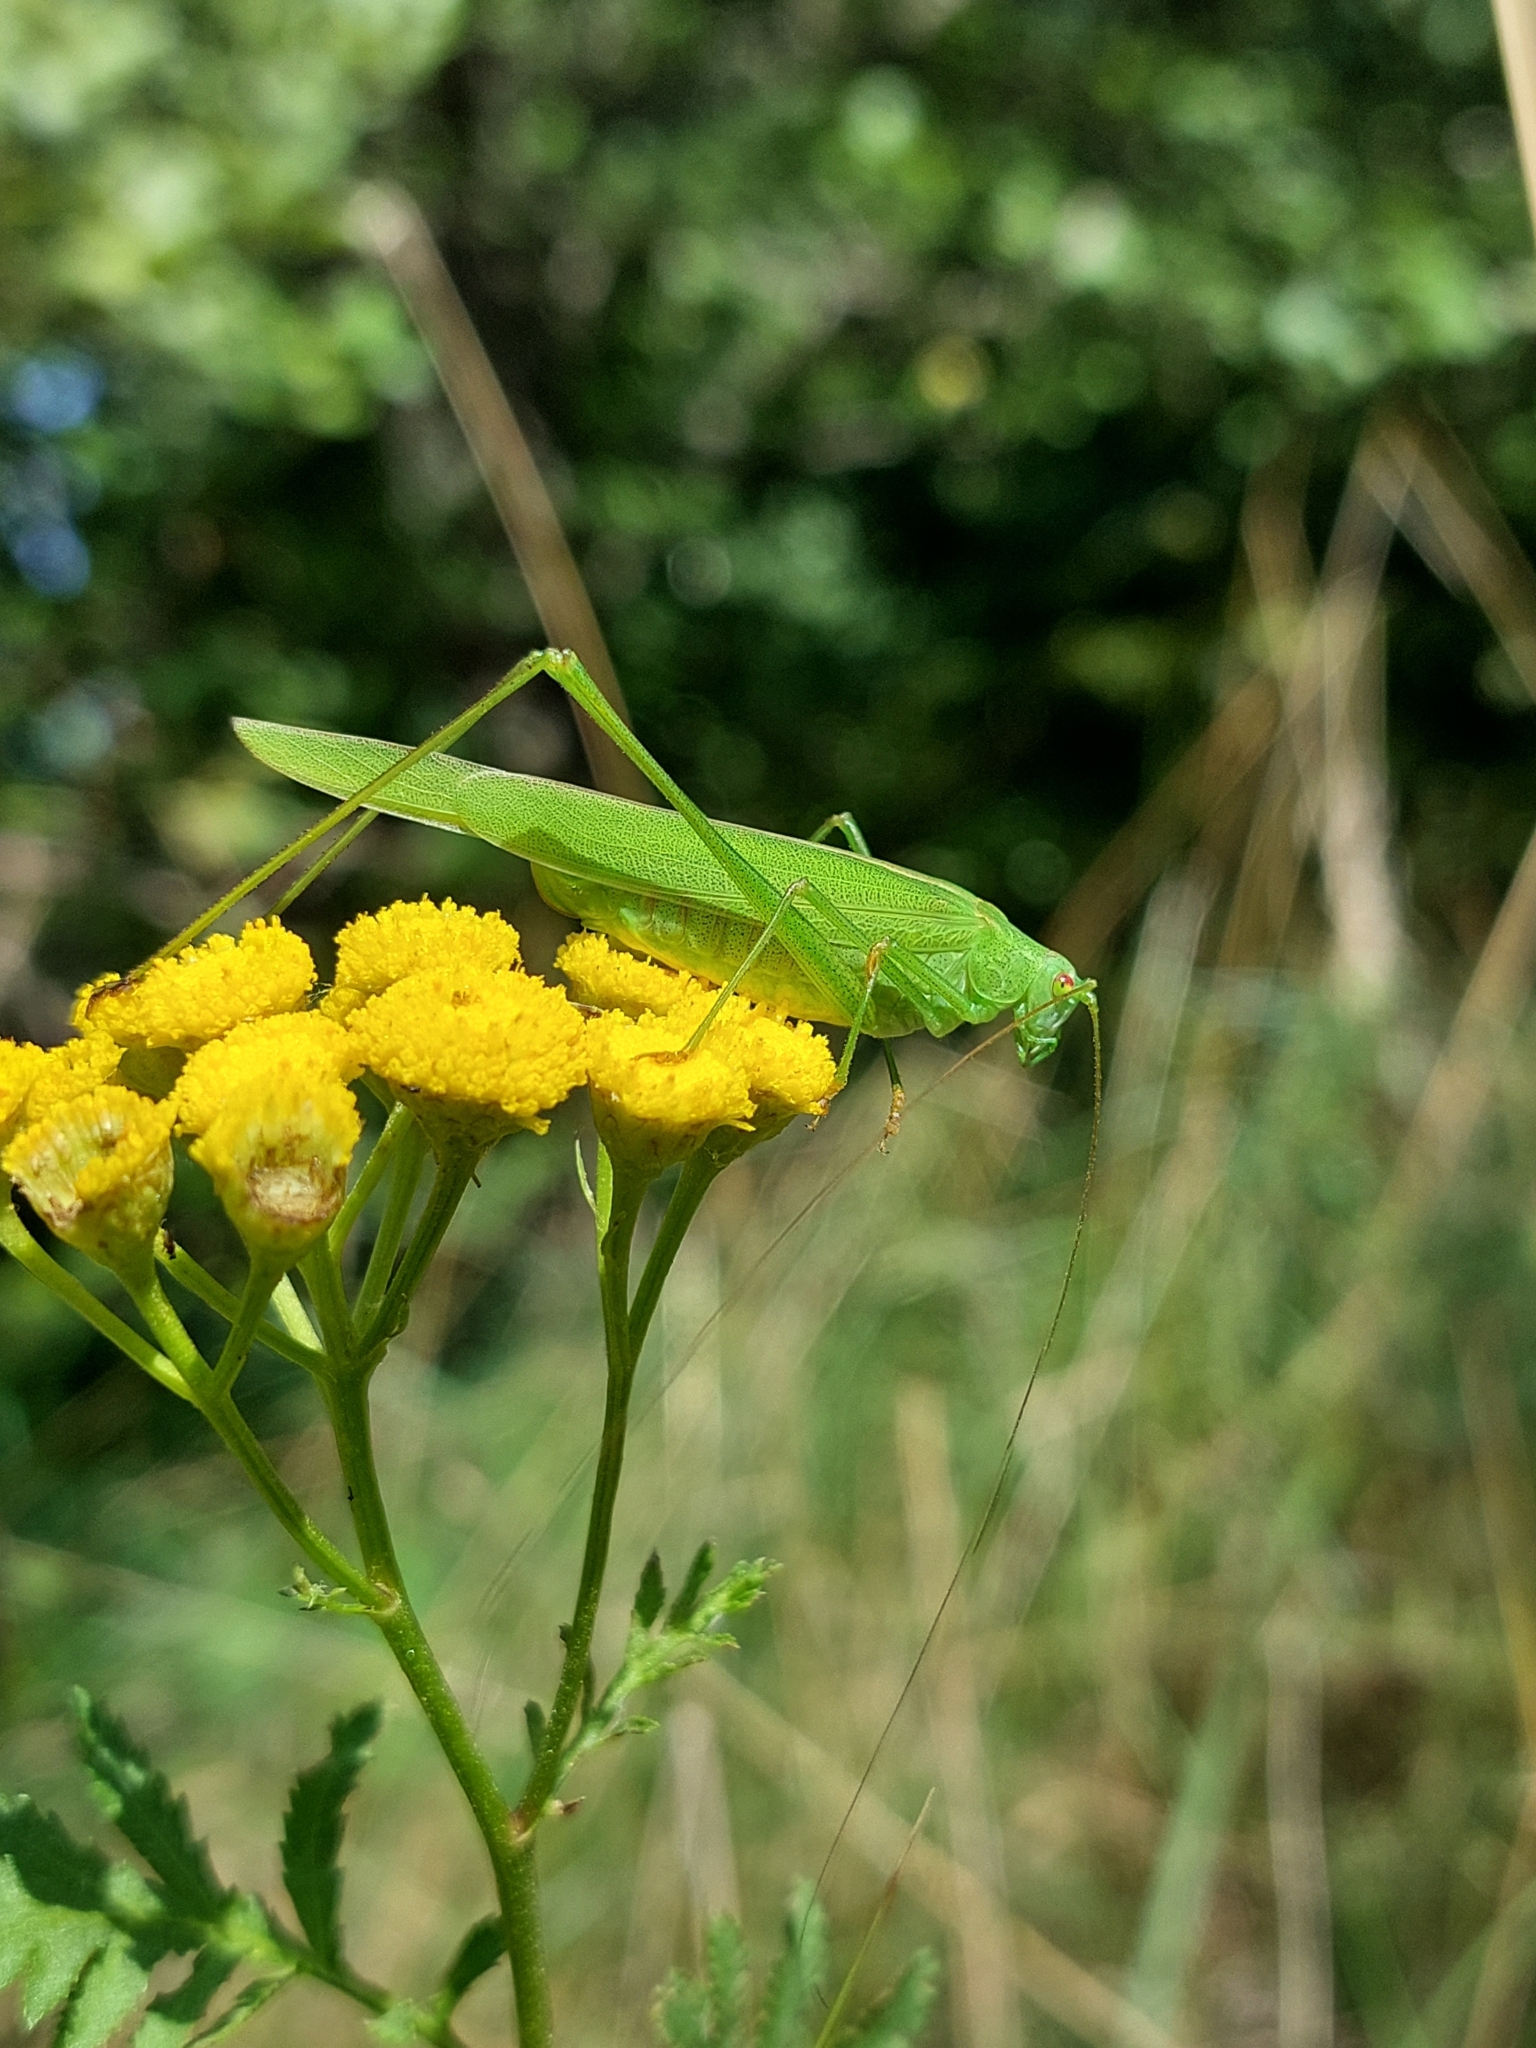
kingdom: Animalia
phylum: Arthropoda
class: Insecta
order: Orthoptera
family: Tettigoniidae
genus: Phaneroptera
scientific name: Phaneroptera falcata
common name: Sickle-bearing bush-cricket
